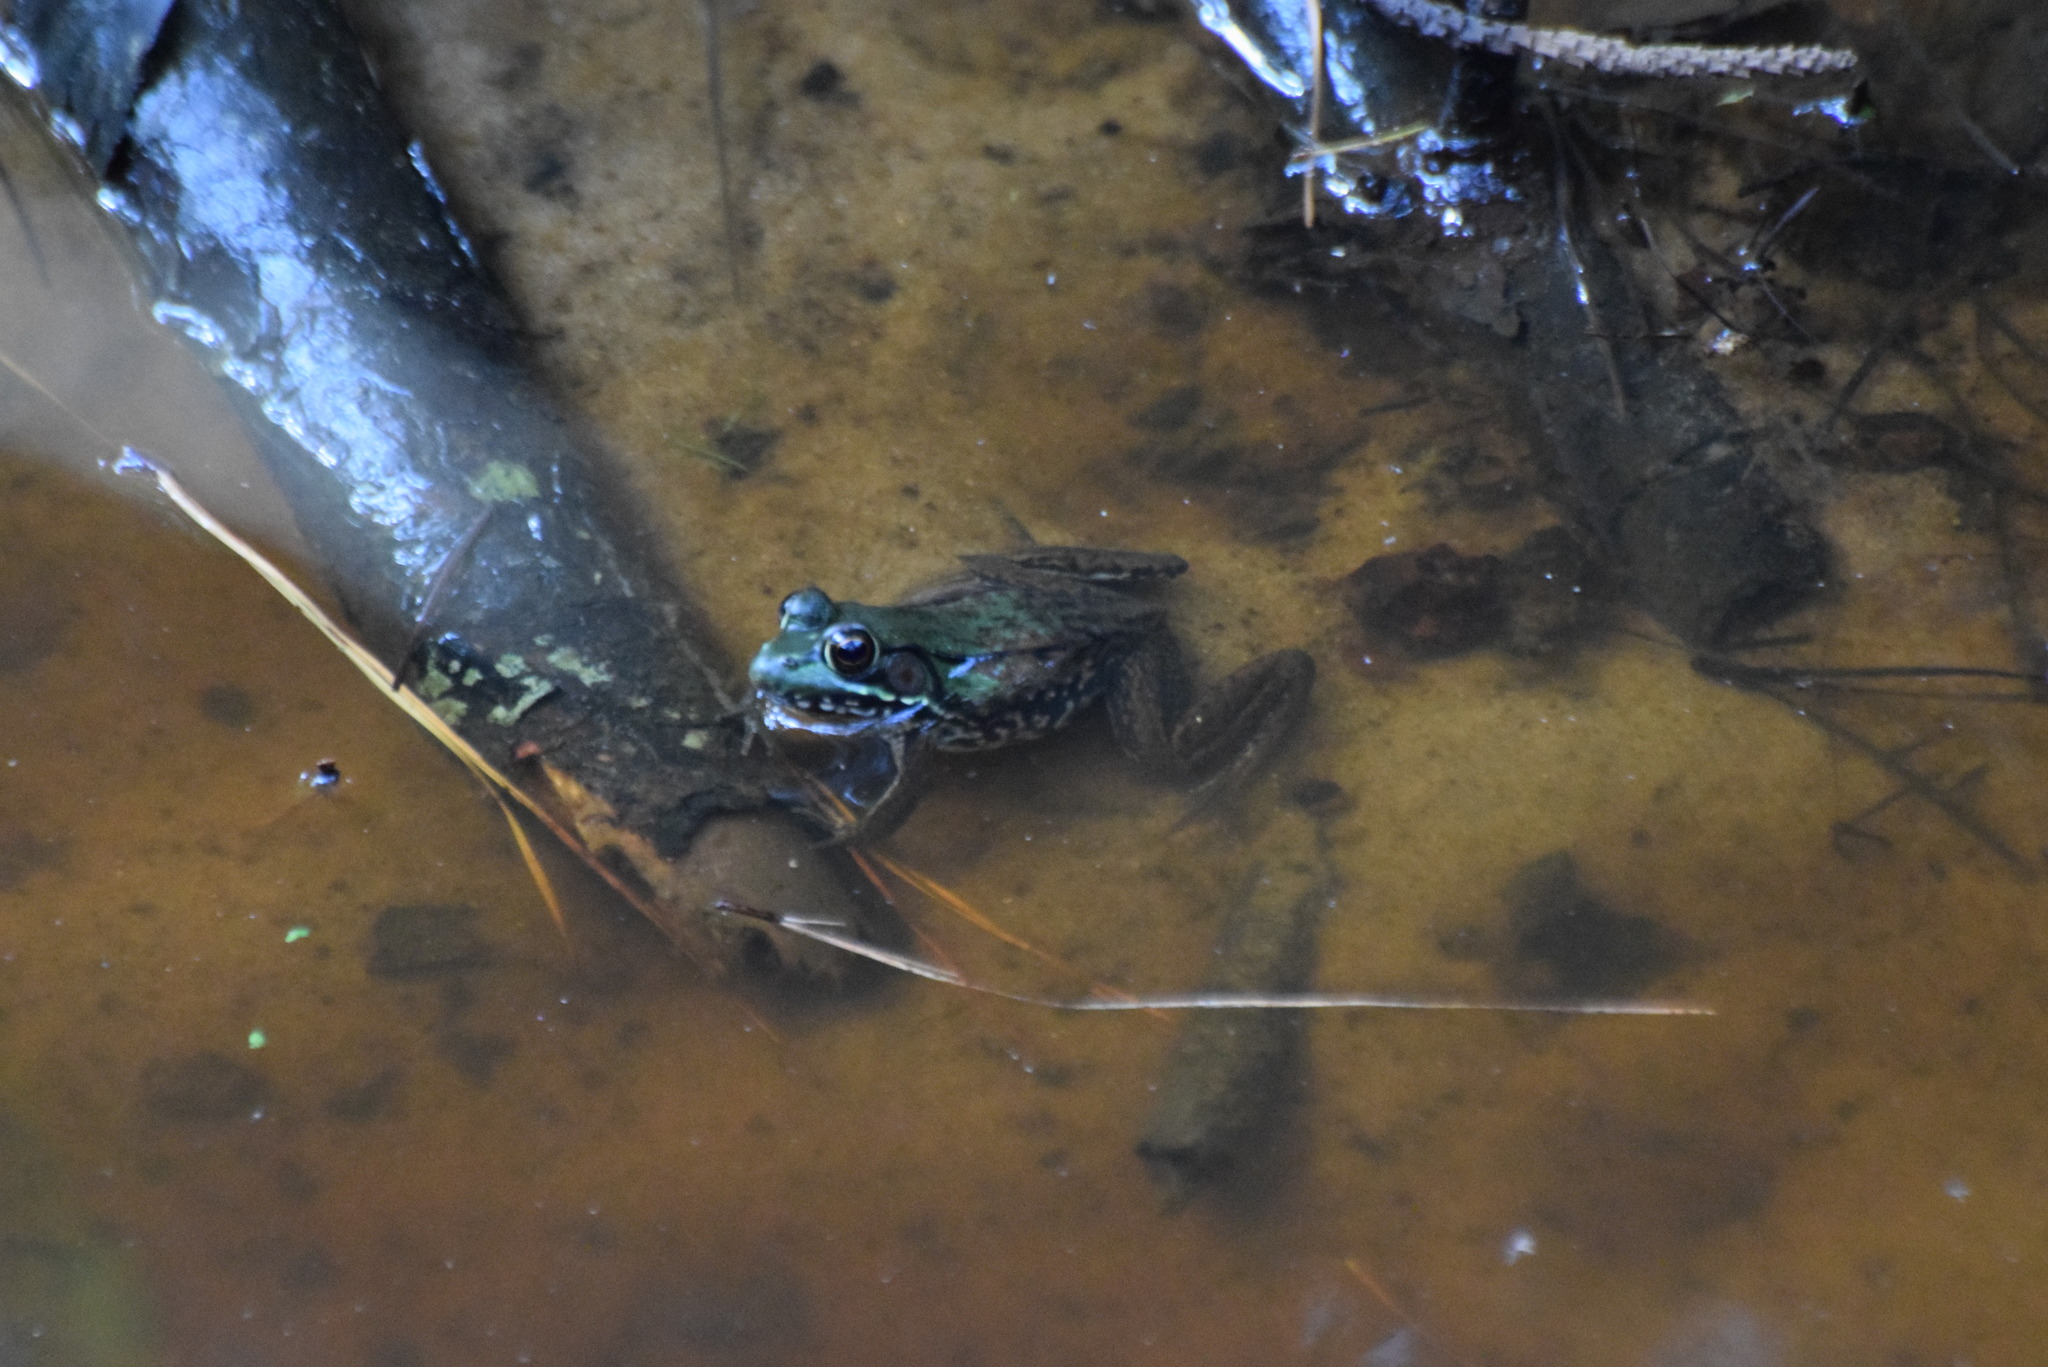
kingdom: Animalia
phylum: Chordata
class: Amphibia
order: Anura
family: Ranidae
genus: Lithobates
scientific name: Lithobates clamitans
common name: Green frog
